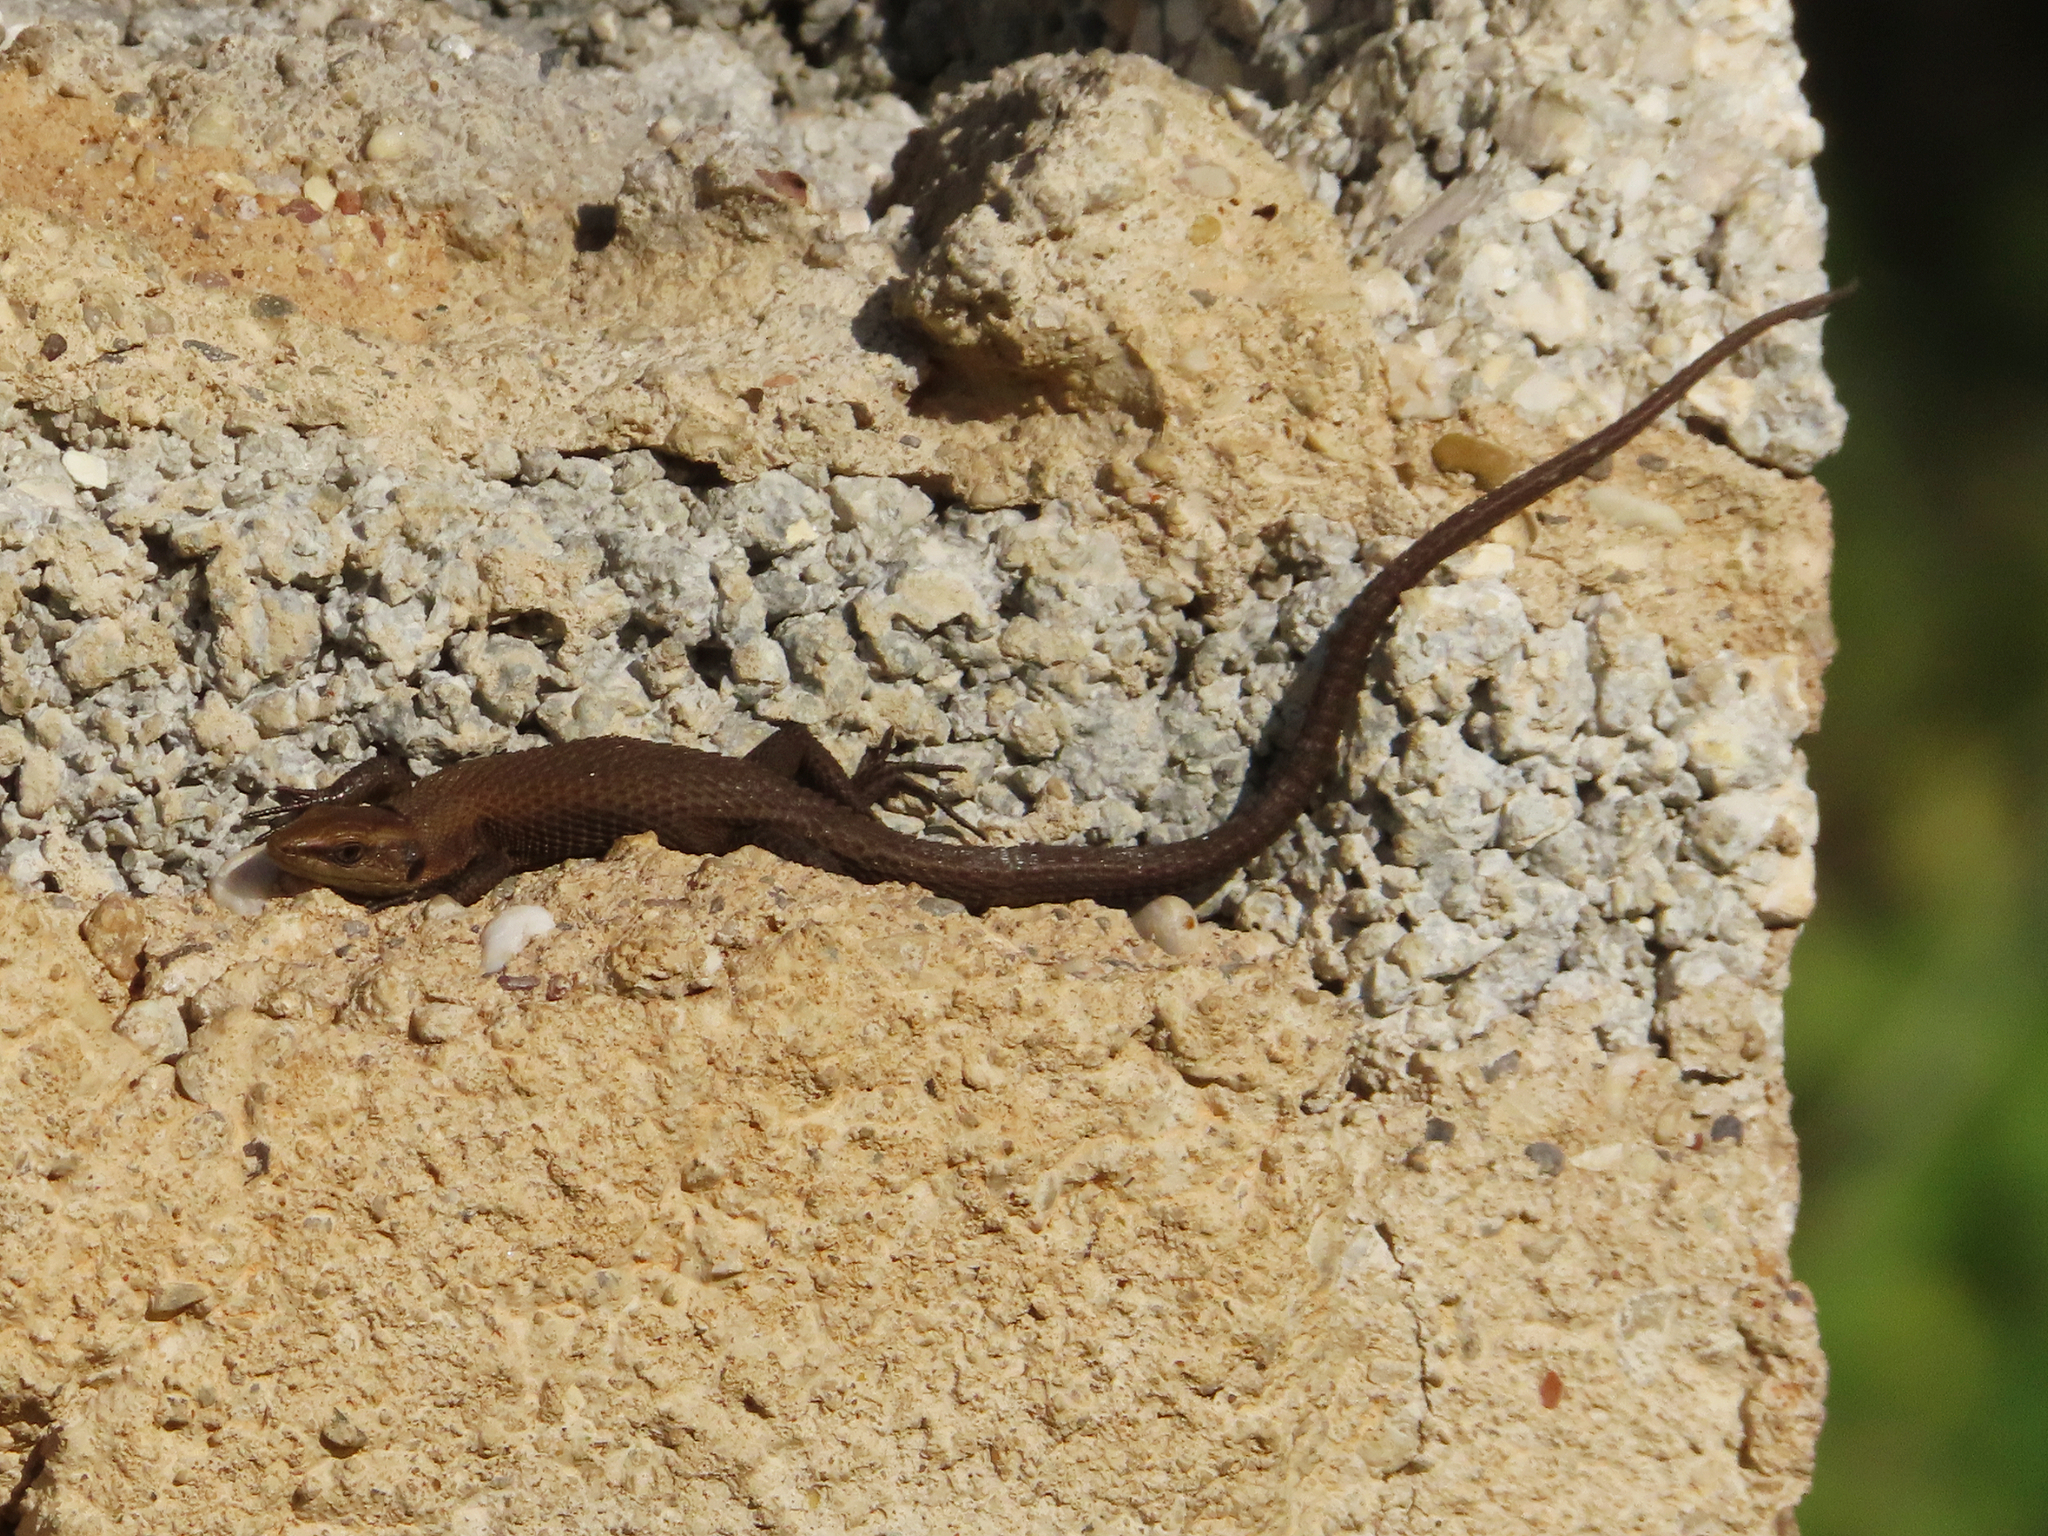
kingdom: Animalia
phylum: Chordata
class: Squamata
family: Lacertidae
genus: Algyroides
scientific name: Algyroides moreoticus
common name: Greek algyroides
